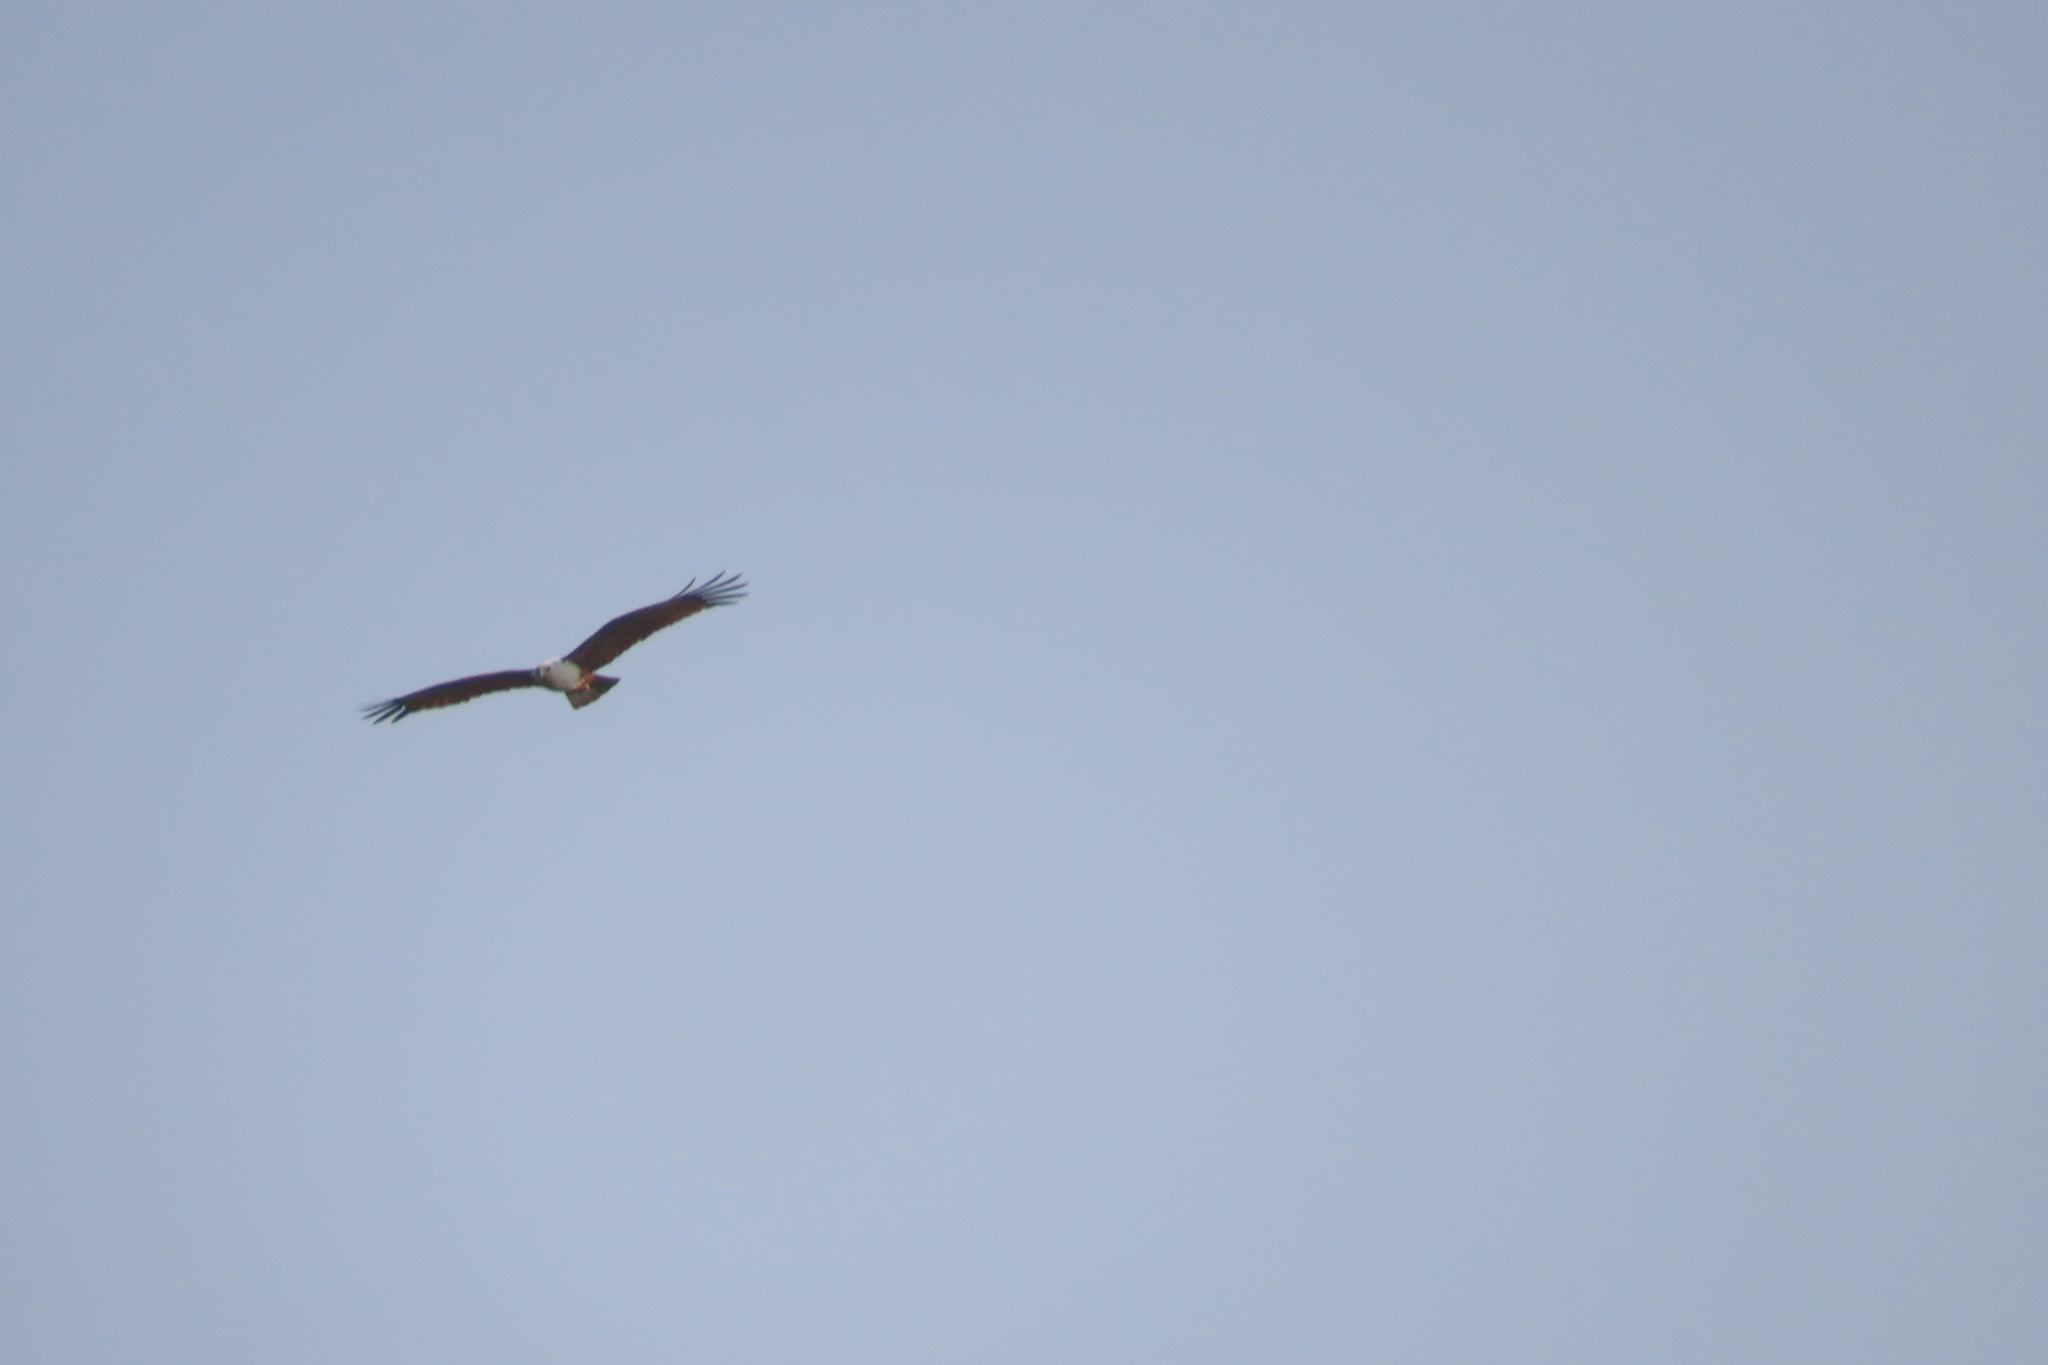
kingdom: Animalia
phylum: Chordata
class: Aves
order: Accipitriformes
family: Accipitridae
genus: Haliastur
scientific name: Haliastur indus
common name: Brahminy kite
